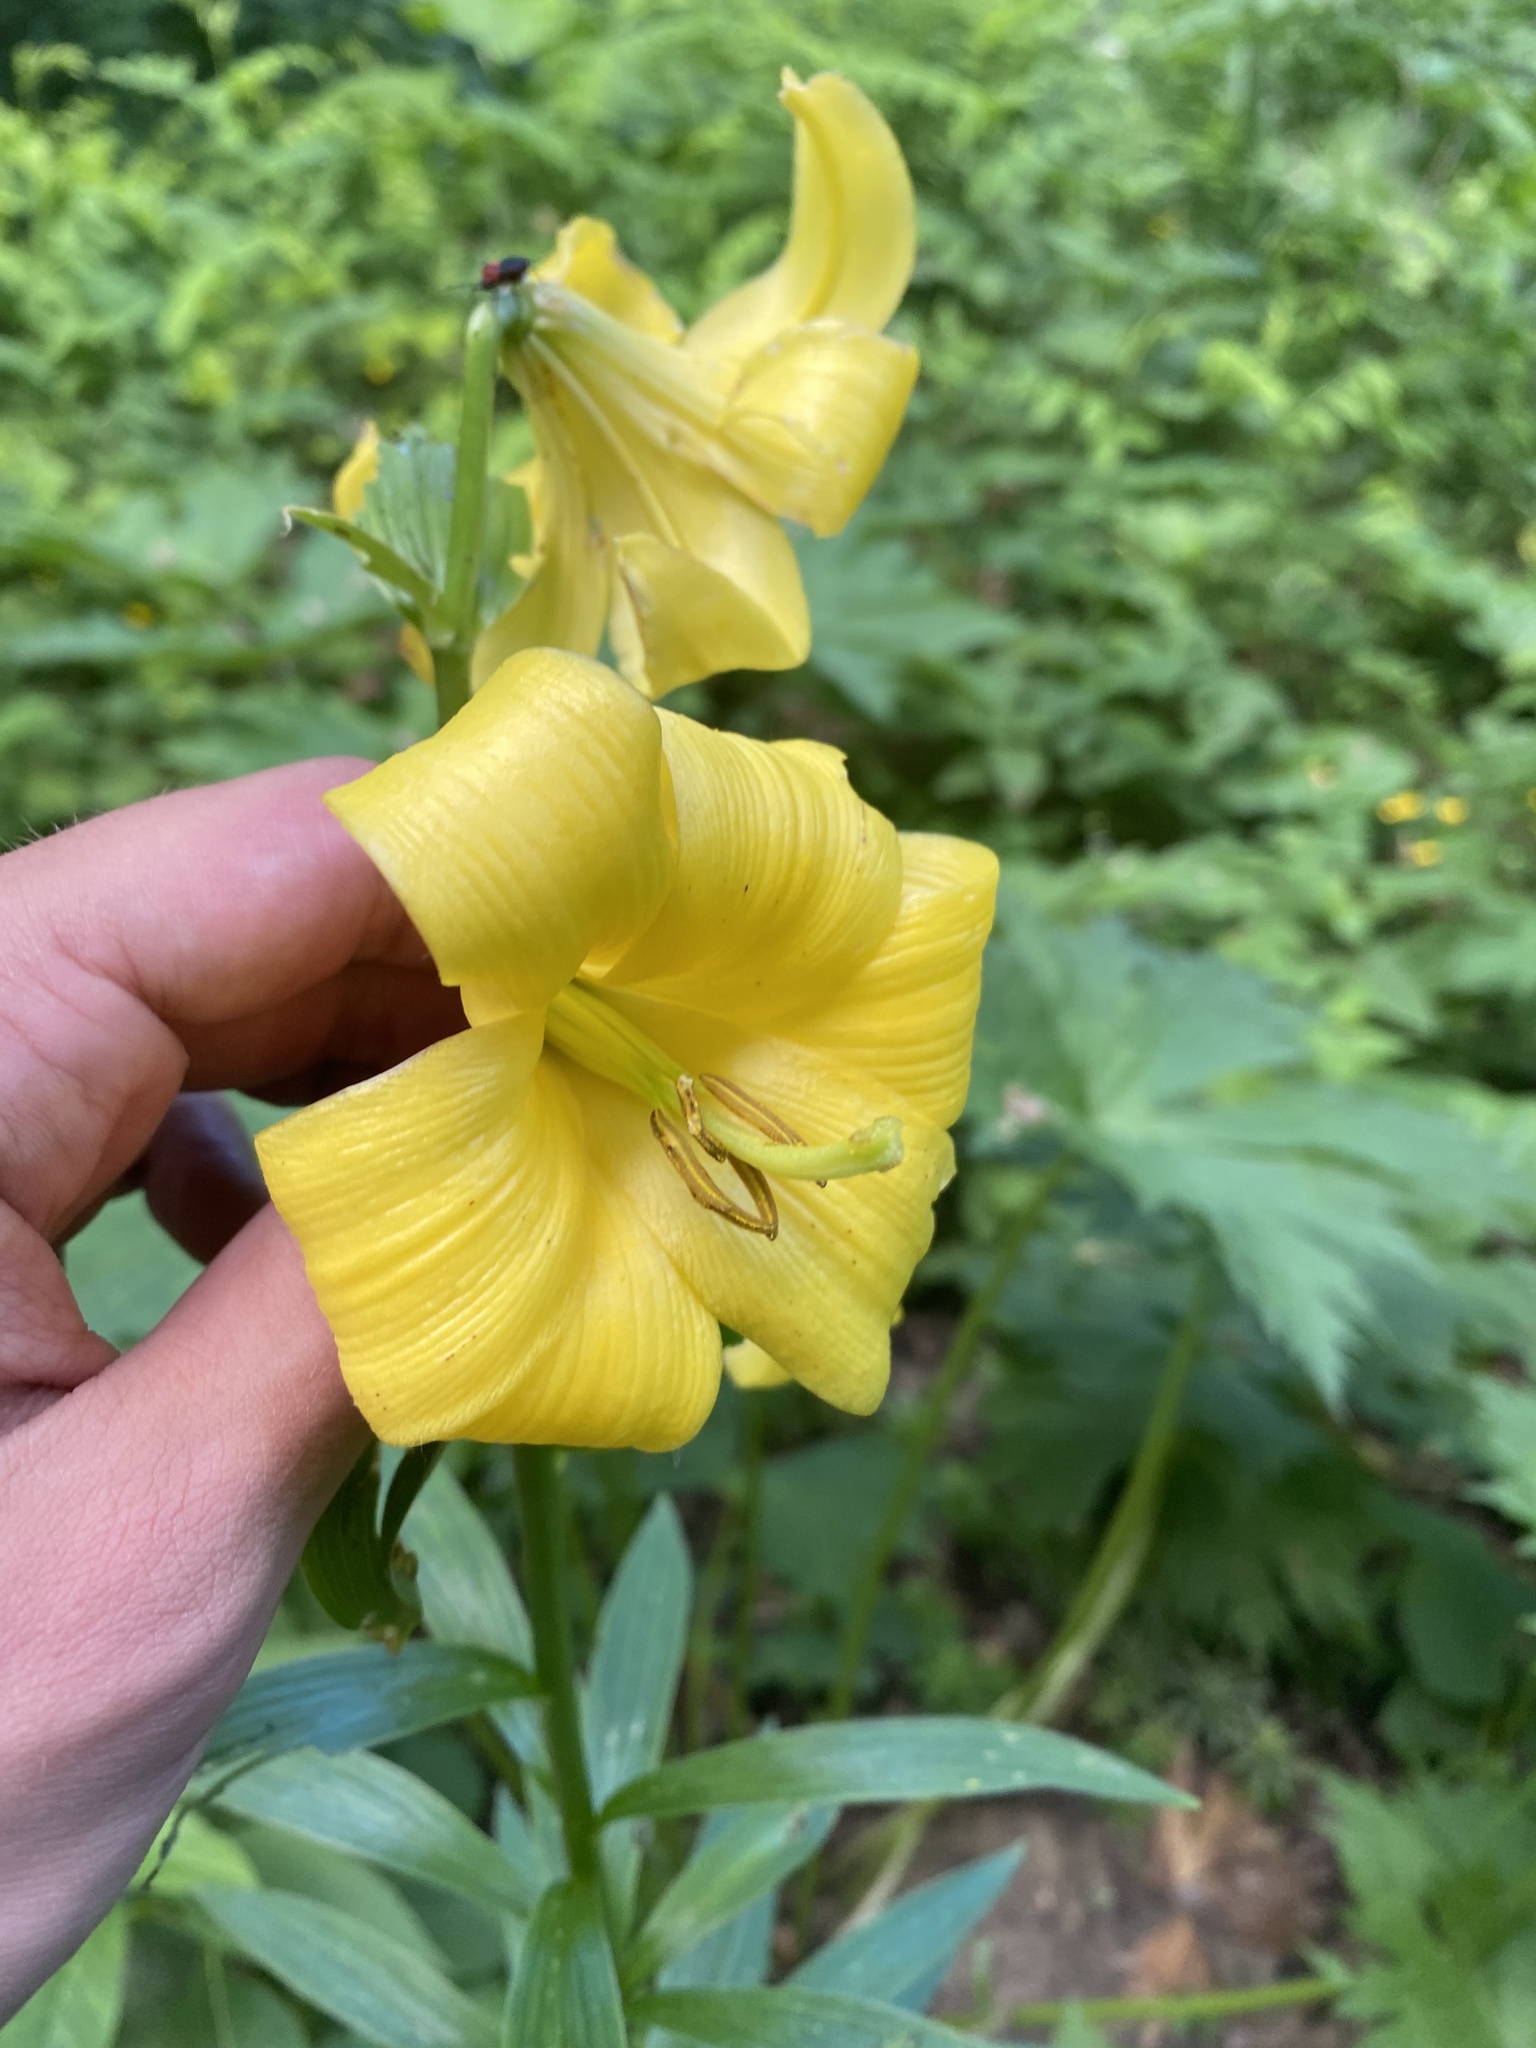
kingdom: Plantae
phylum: Tracheophyta
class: Liliopsida
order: Liliales
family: Liliaceae
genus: Lilium
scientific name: Lilium monadelphum
